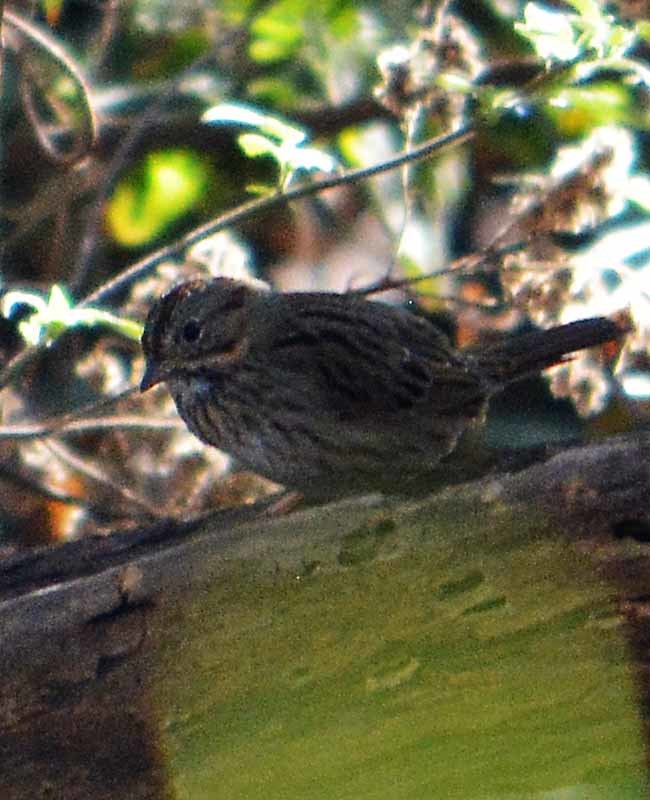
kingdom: Animalia
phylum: Chordata
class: Aves
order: Passeriformes
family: Passerellidae
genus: Melospiza
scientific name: Melospiza lincolnii
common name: Lincoln's sparrow
